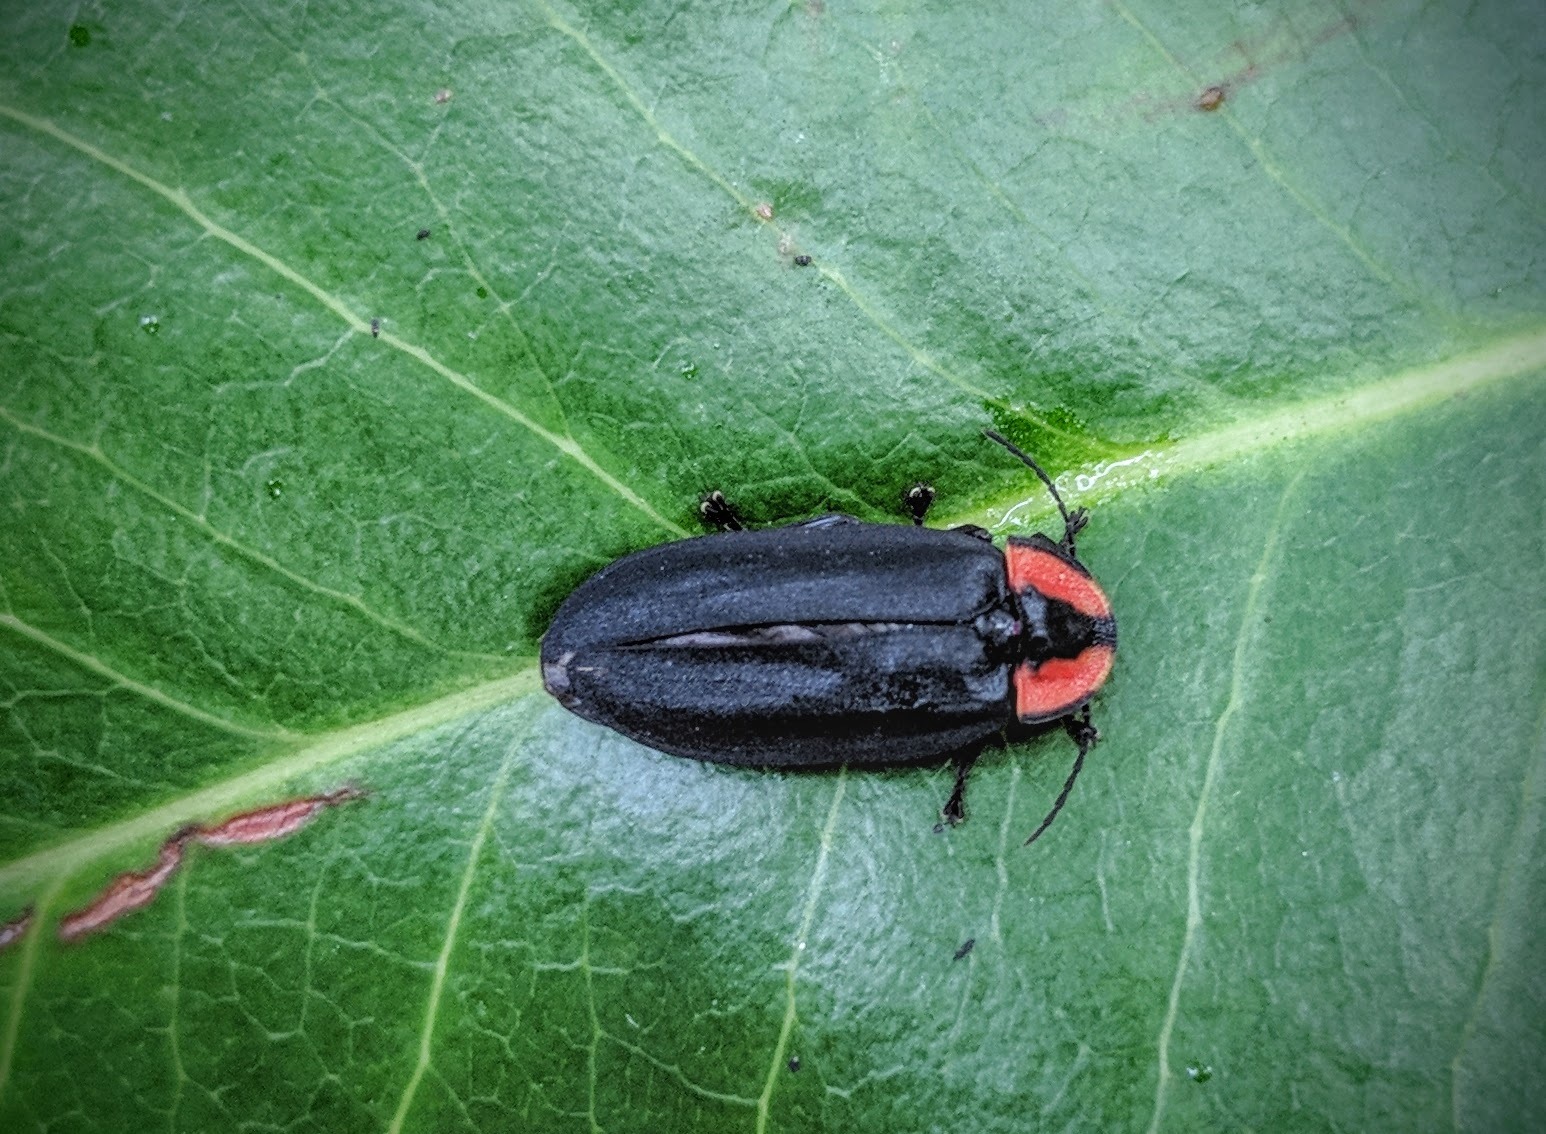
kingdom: Animalia
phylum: Arthropoda
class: Insecta
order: Coleoptera
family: Lampyridae
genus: Photinus
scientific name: Photinus californica
